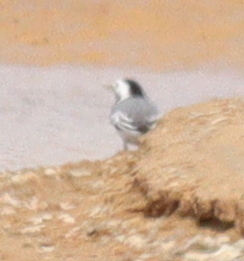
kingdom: Animalia
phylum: Chordata
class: Aves
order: Passeriformes
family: Motacillidae
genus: Motacilla
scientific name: Motacilla alba
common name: White wagtail
